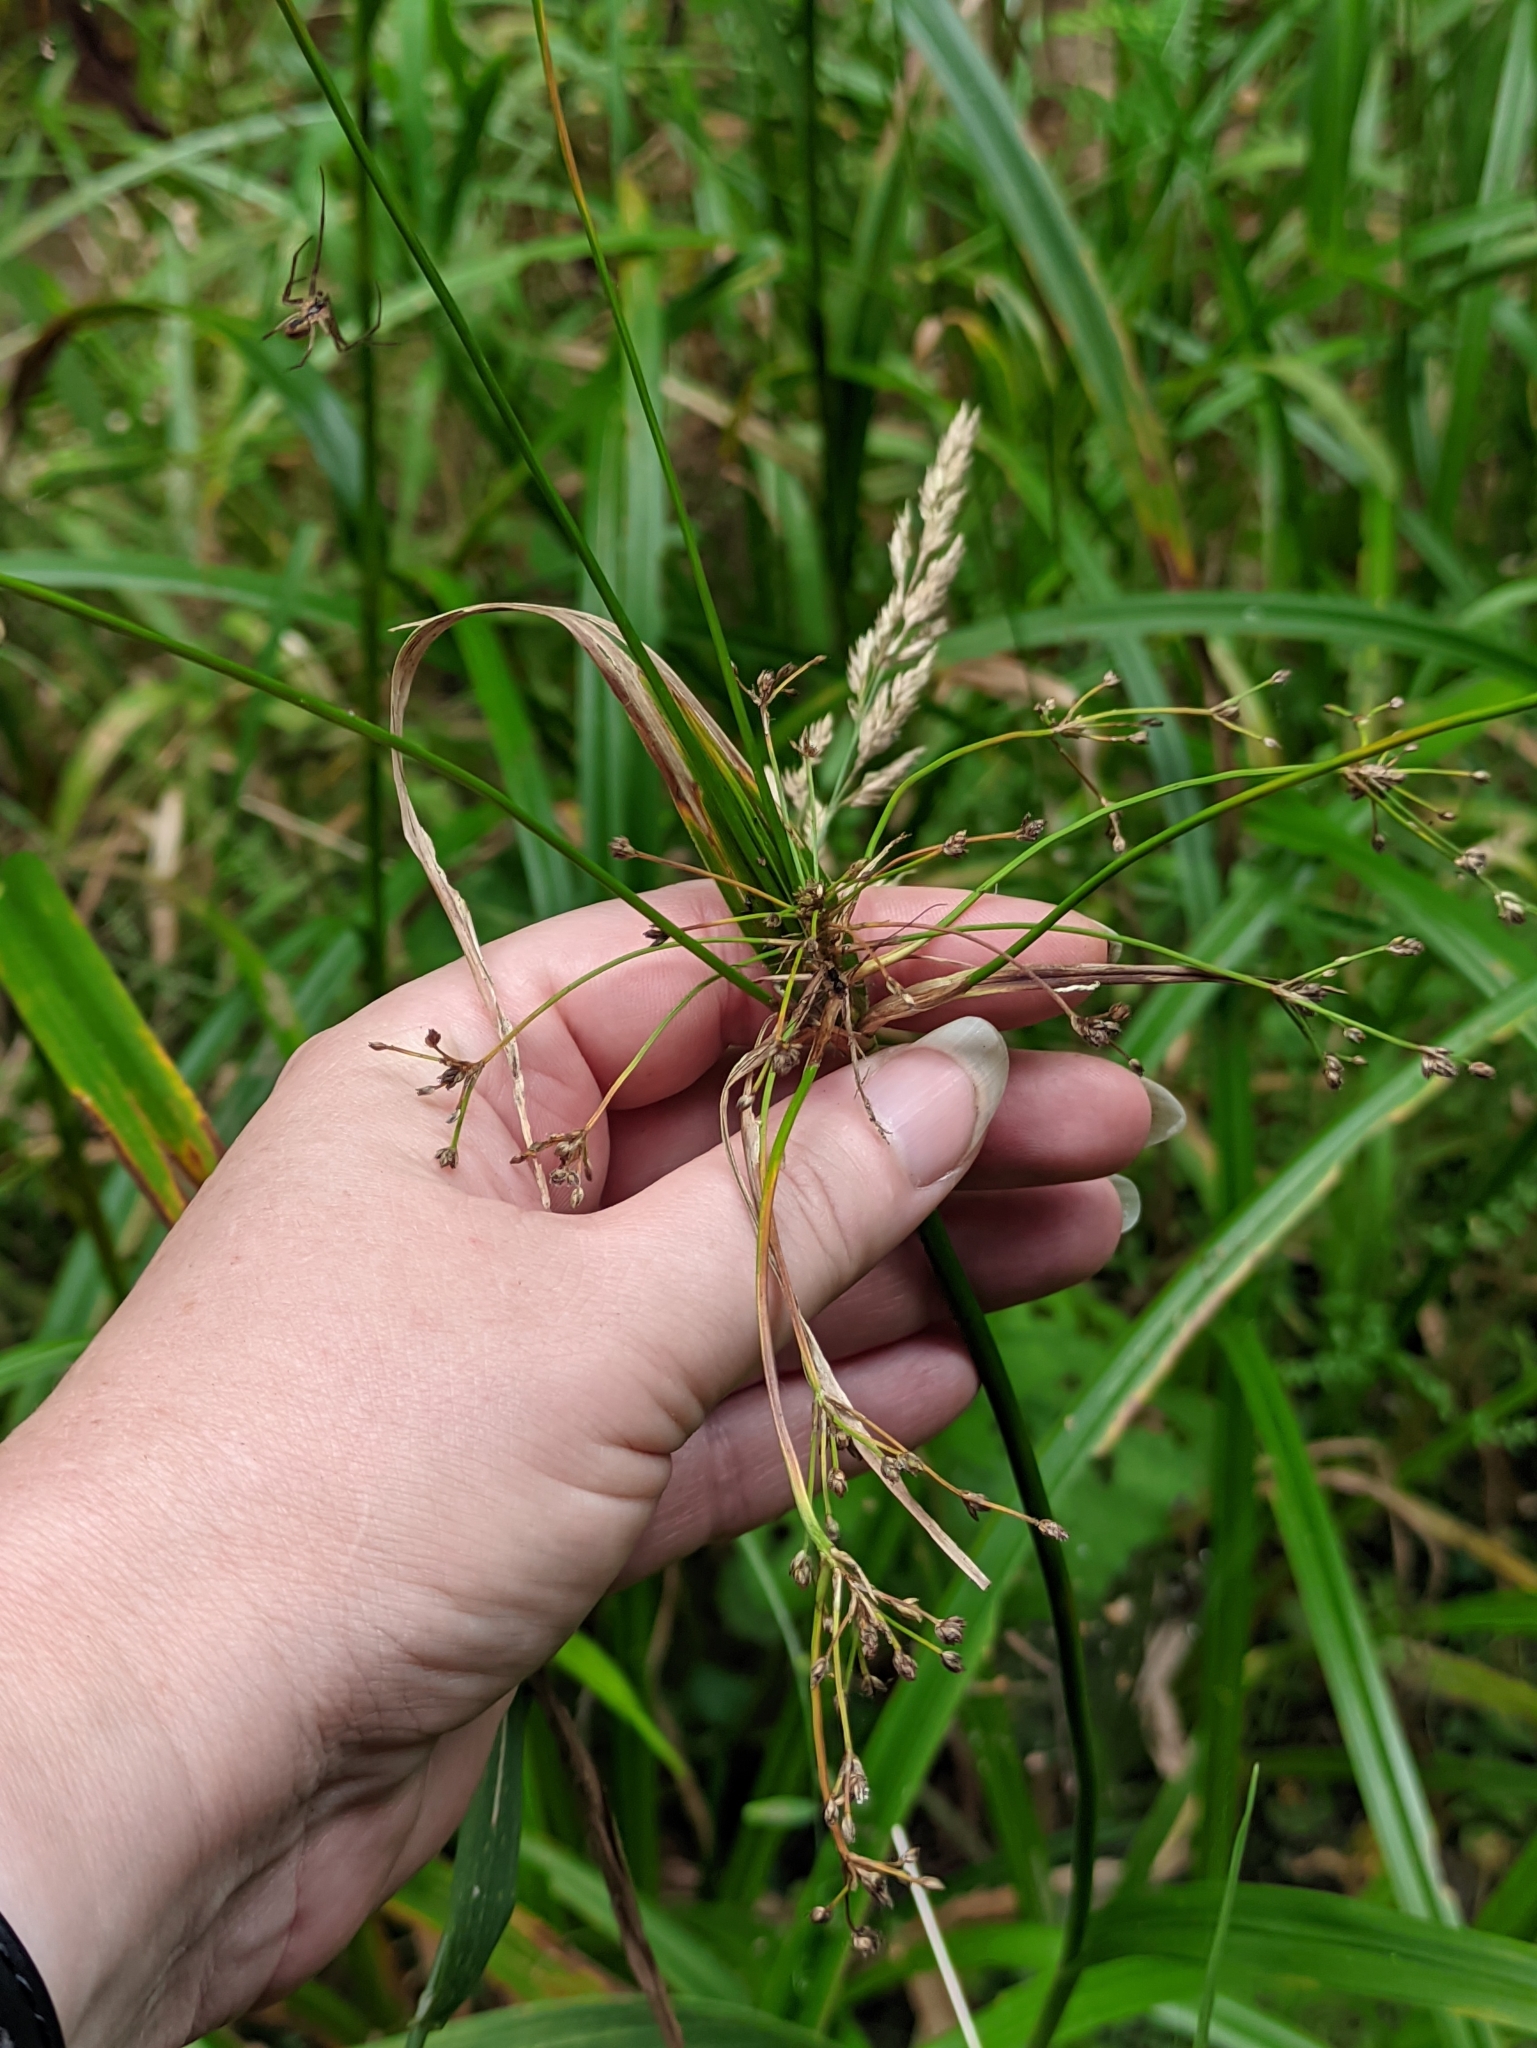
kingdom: Plantae
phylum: Tracheophyta
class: Liliopsida
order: Poales
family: Cyperaceae
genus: Scirpus
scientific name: Scirpus sylvaticus
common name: Wood club-rush
